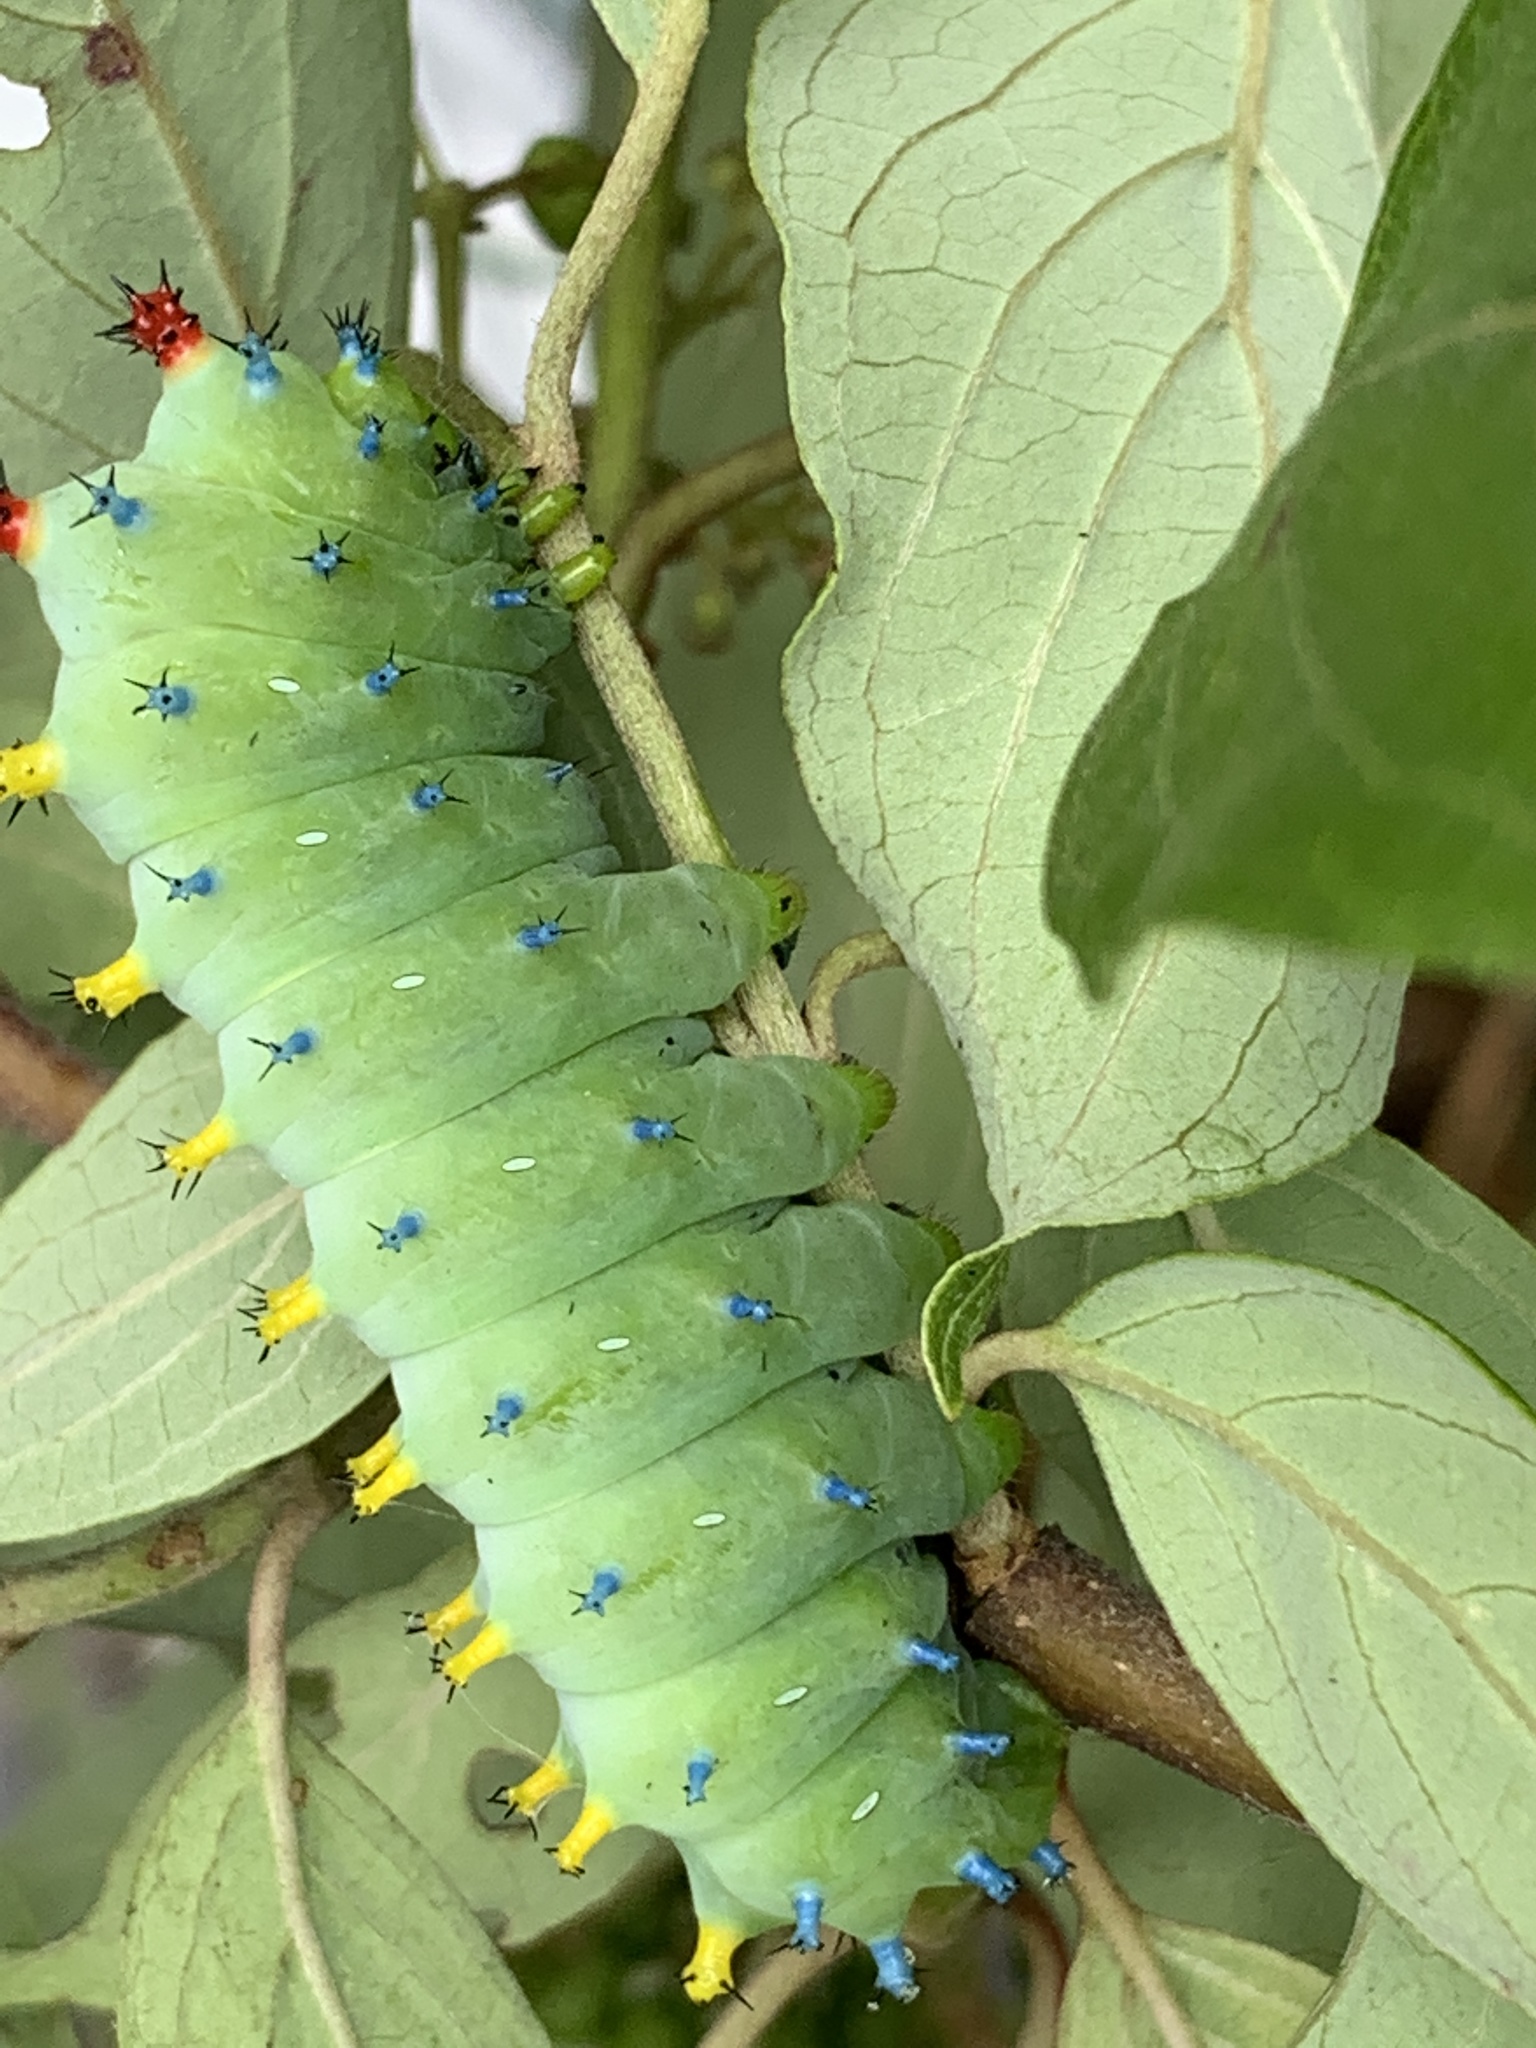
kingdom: Animalia
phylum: Arthropoda
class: Insecta
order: Lepidoptera
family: Saturniidae
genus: Hyalophora
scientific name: Hyalophora cecropia
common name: Cecropia silkmoth
